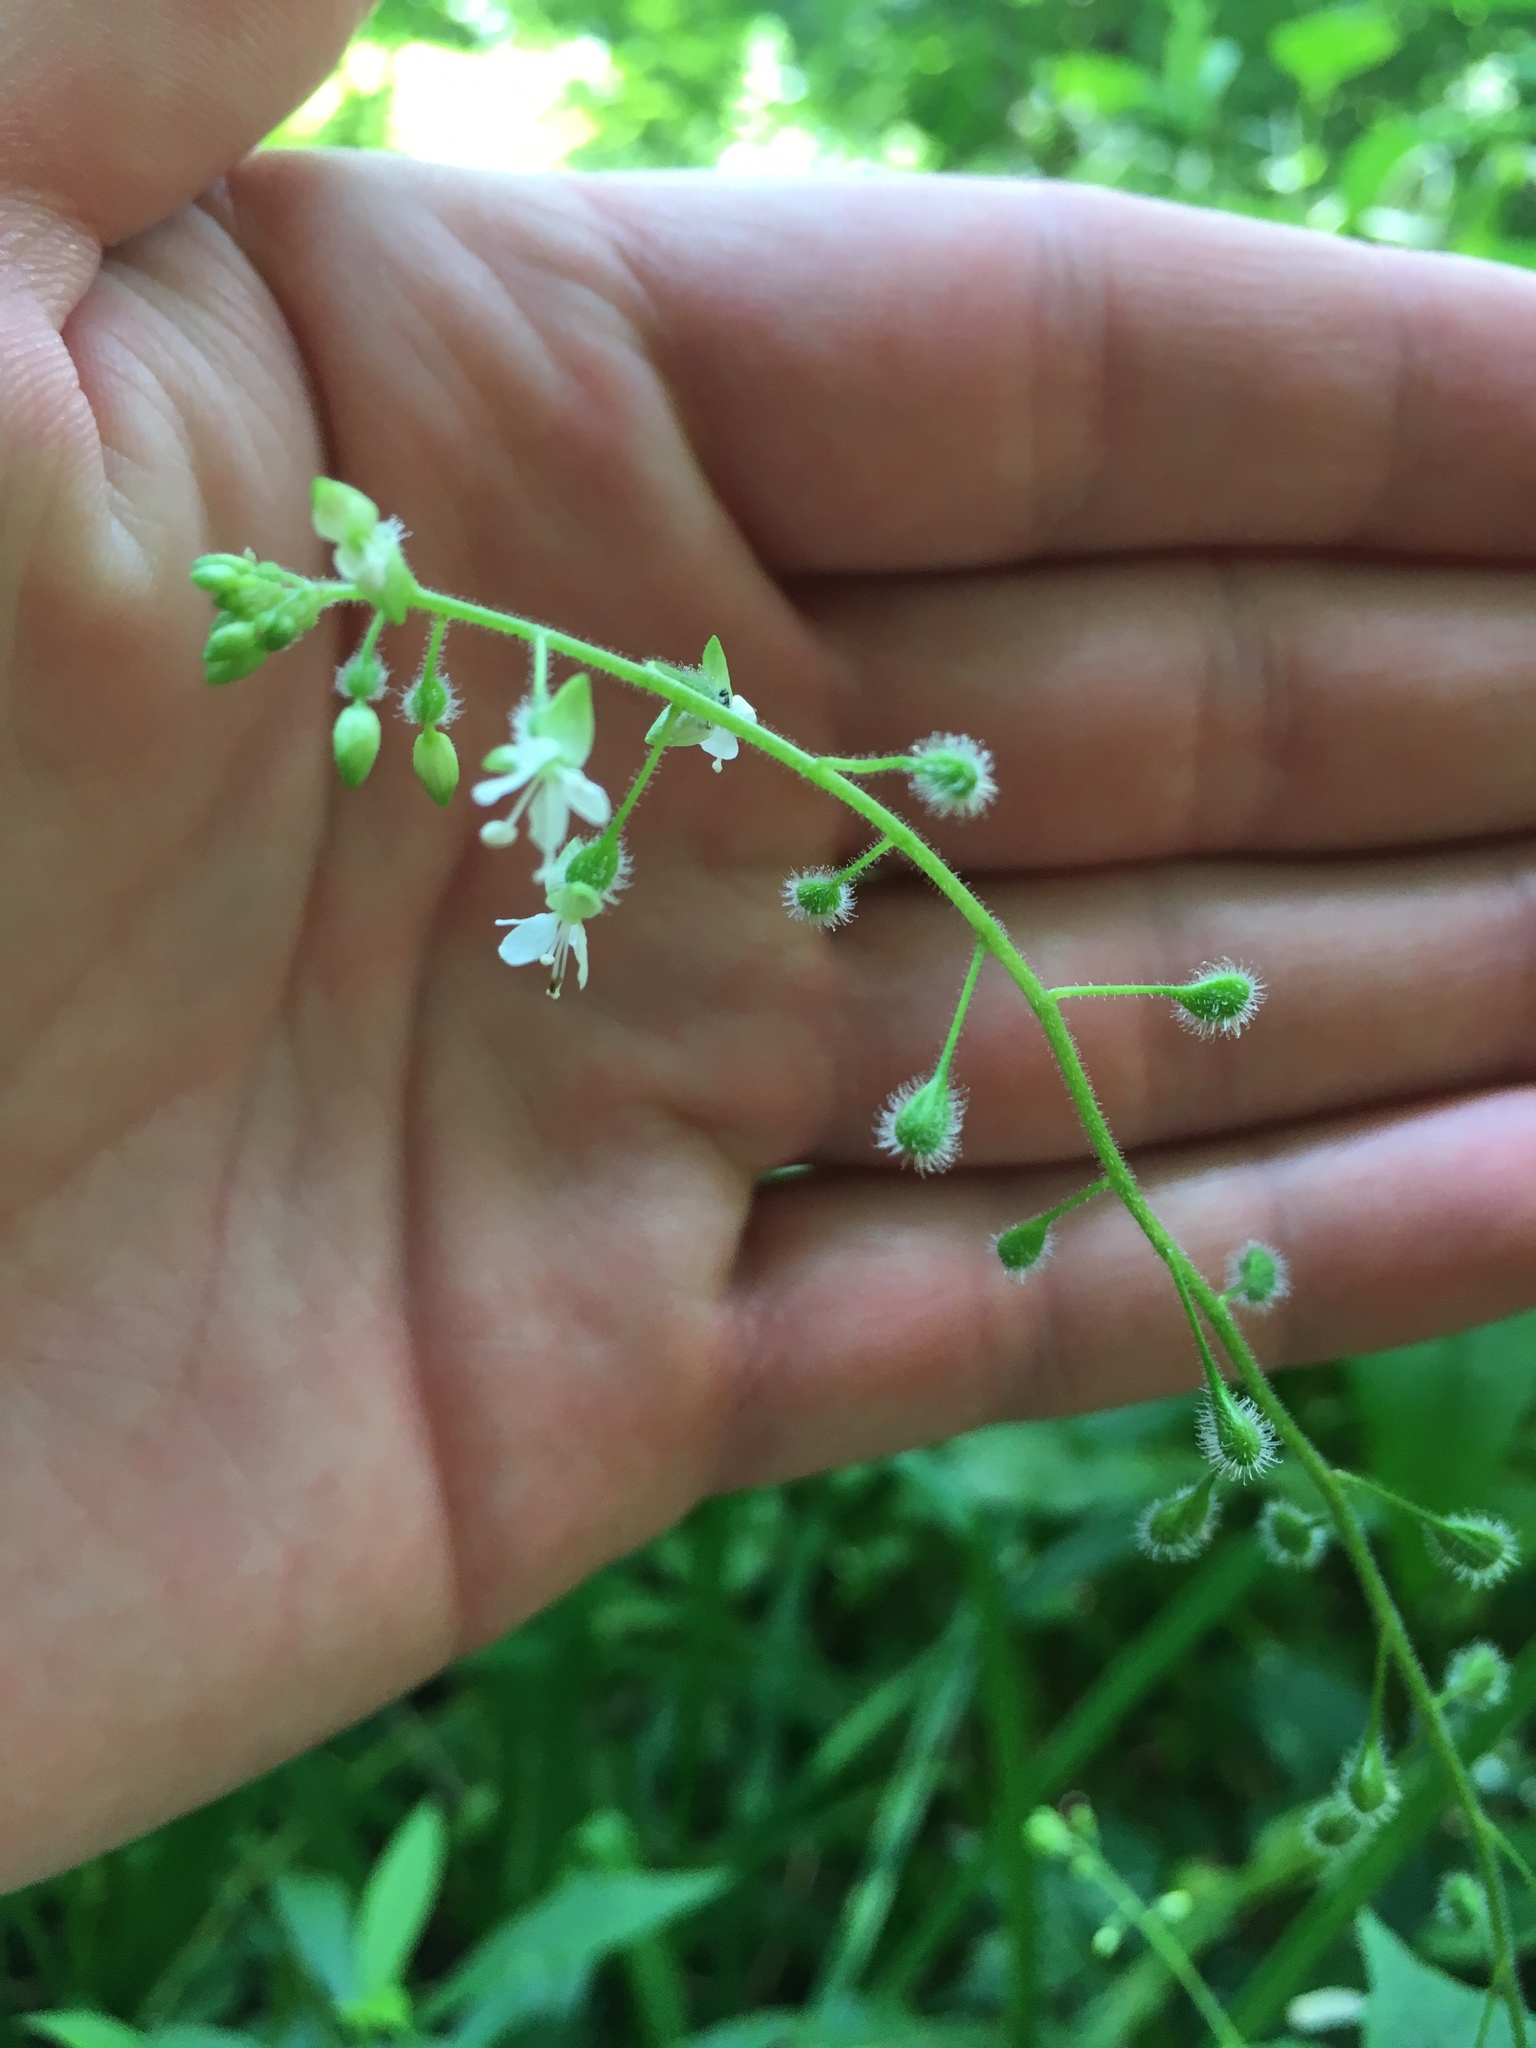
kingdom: Plantae
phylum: Tracheophyta
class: Magnoliopsida
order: Myrtales
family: Onagraceae
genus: Circaea
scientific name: Circaea canadensis
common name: Broad-leaved enchanter's nightshade
